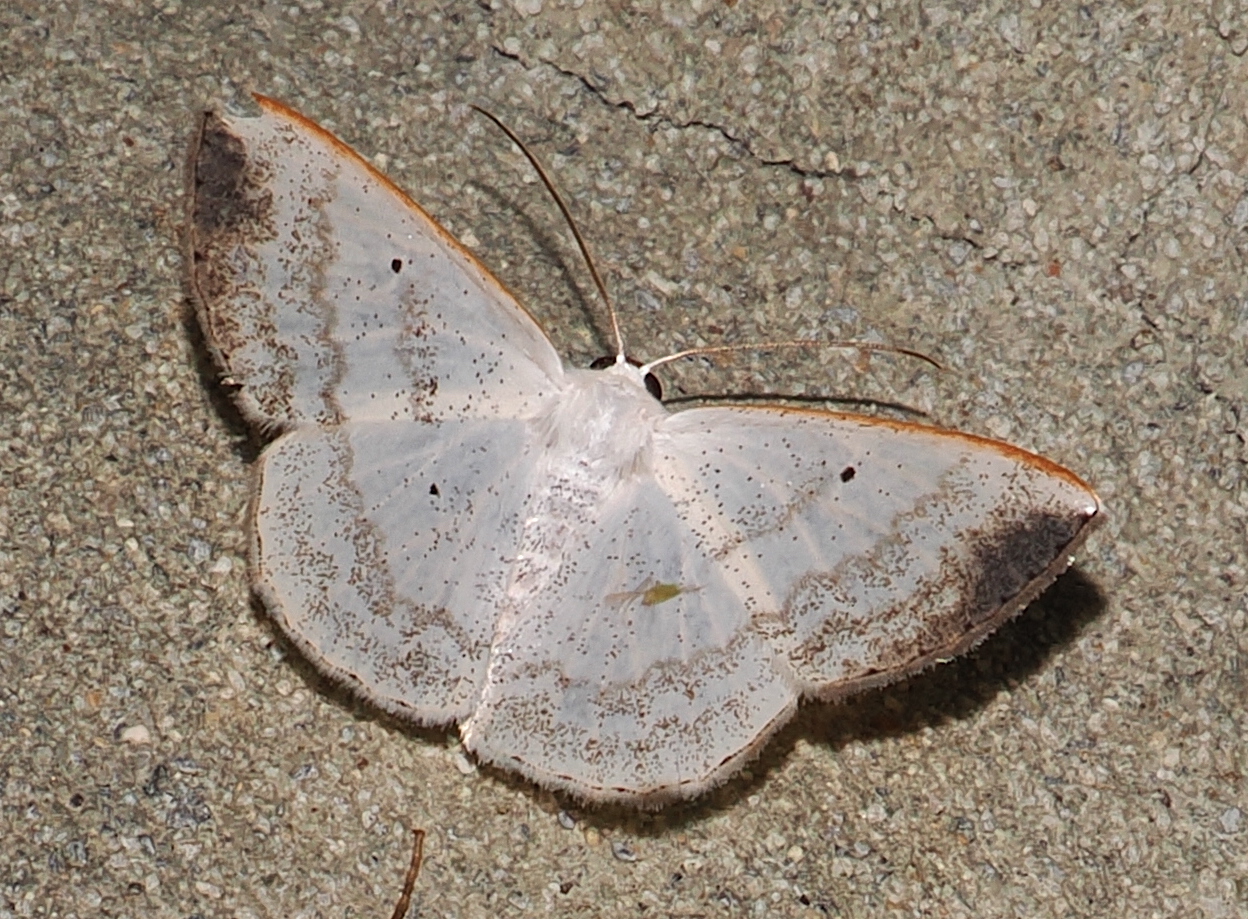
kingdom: Animalia
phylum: Arthropoda
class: Insecta
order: Lepidoptera
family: Geometridae
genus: Lomographa
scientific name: Lomographa nubimargo
